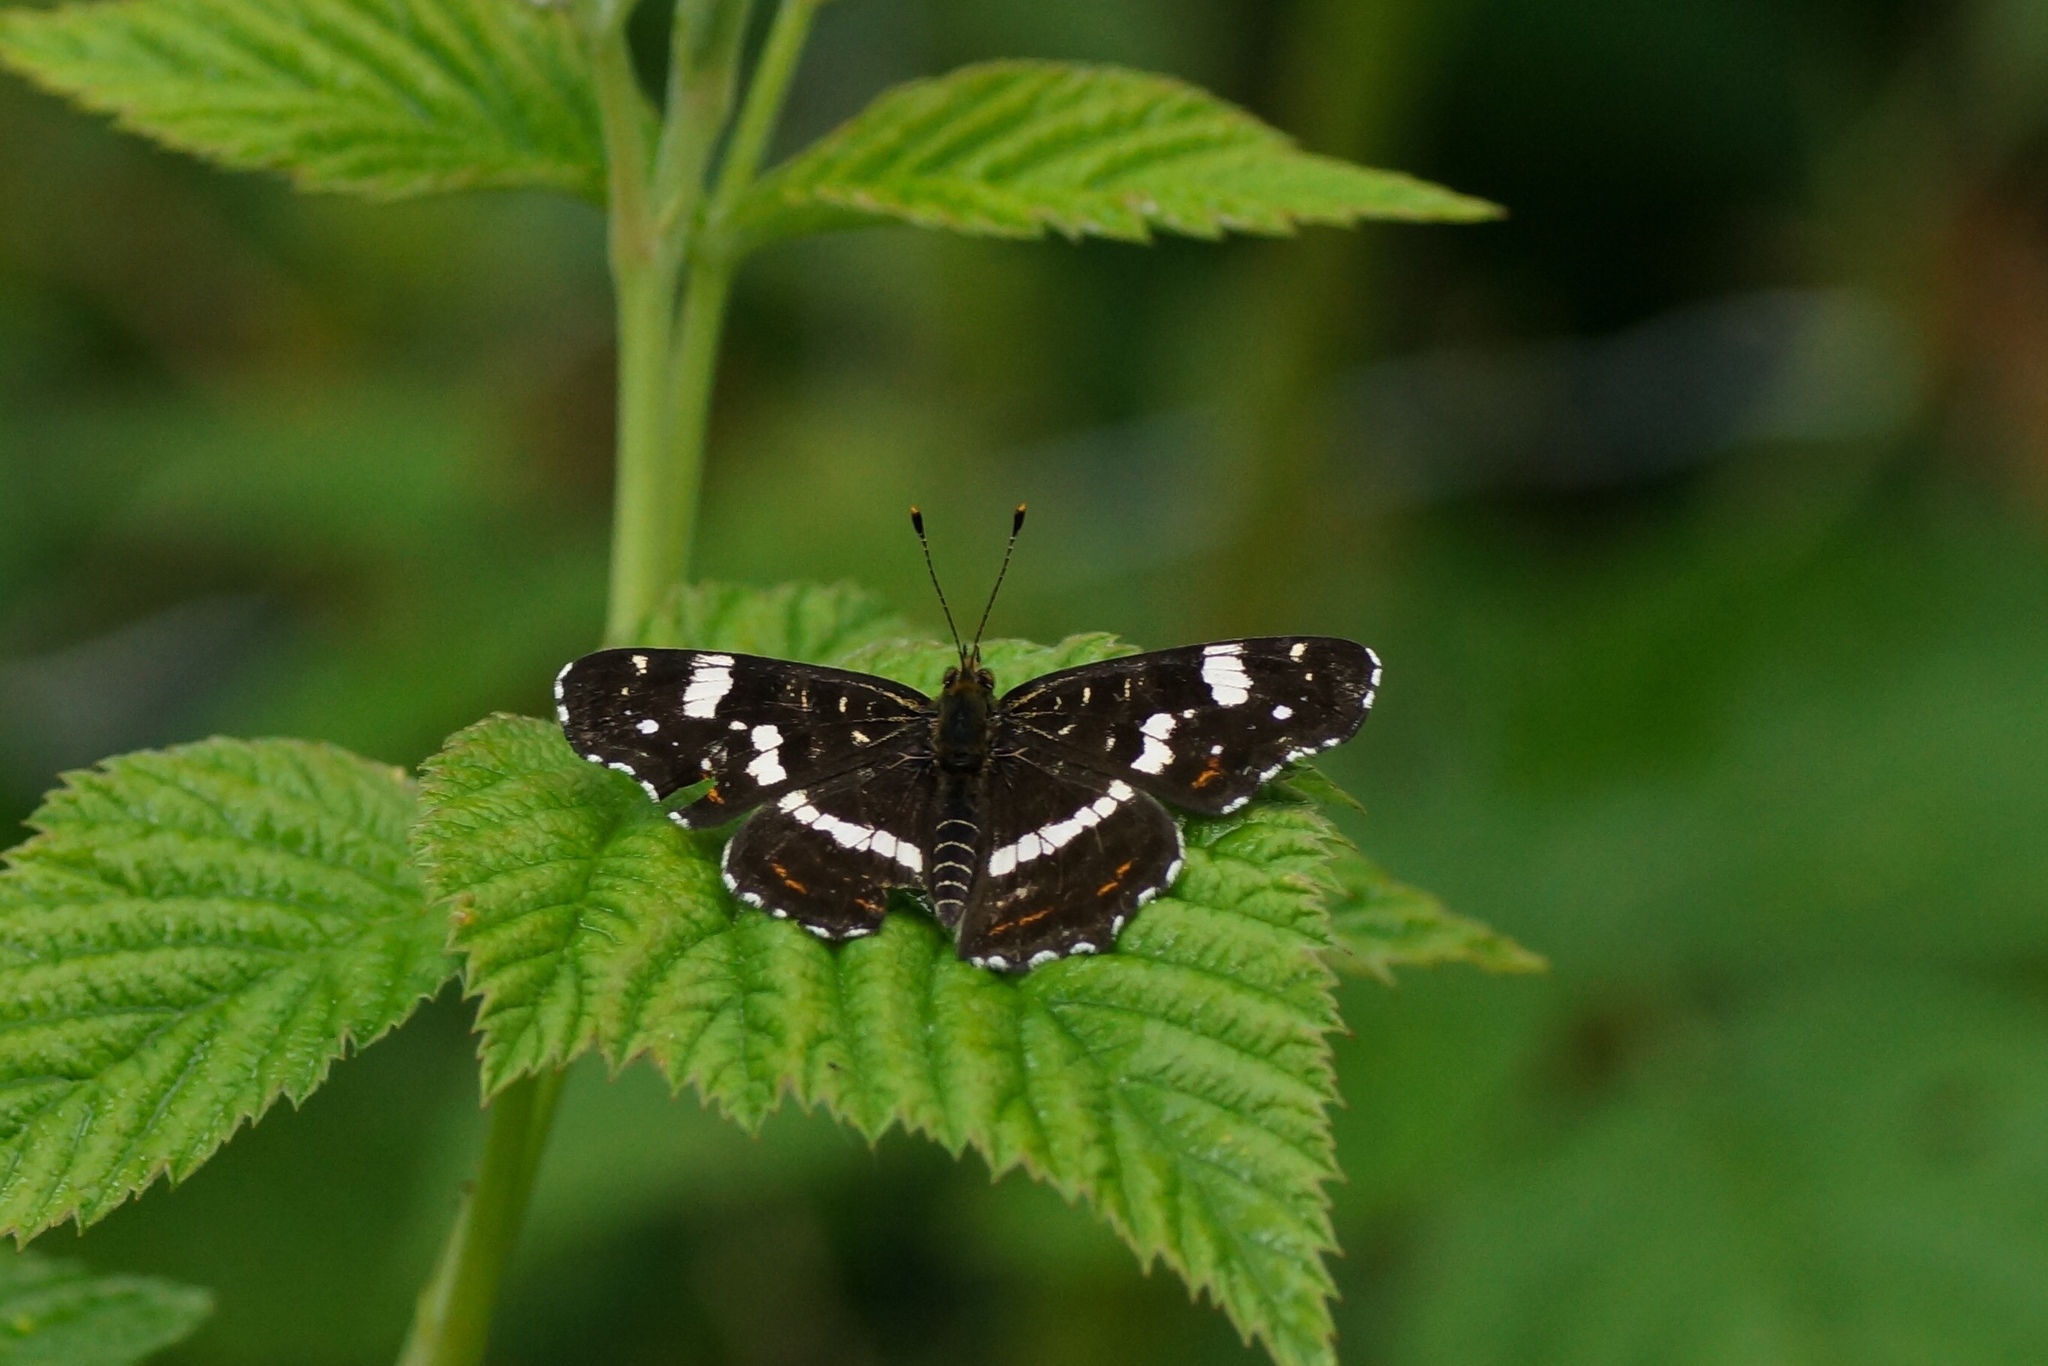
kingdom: Animalia
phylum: Arthropoda
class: Insecta
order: Lepidoptera
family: Nymphalidae
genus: Araschnia
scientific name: Araschnia levana
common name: Map butterfly
